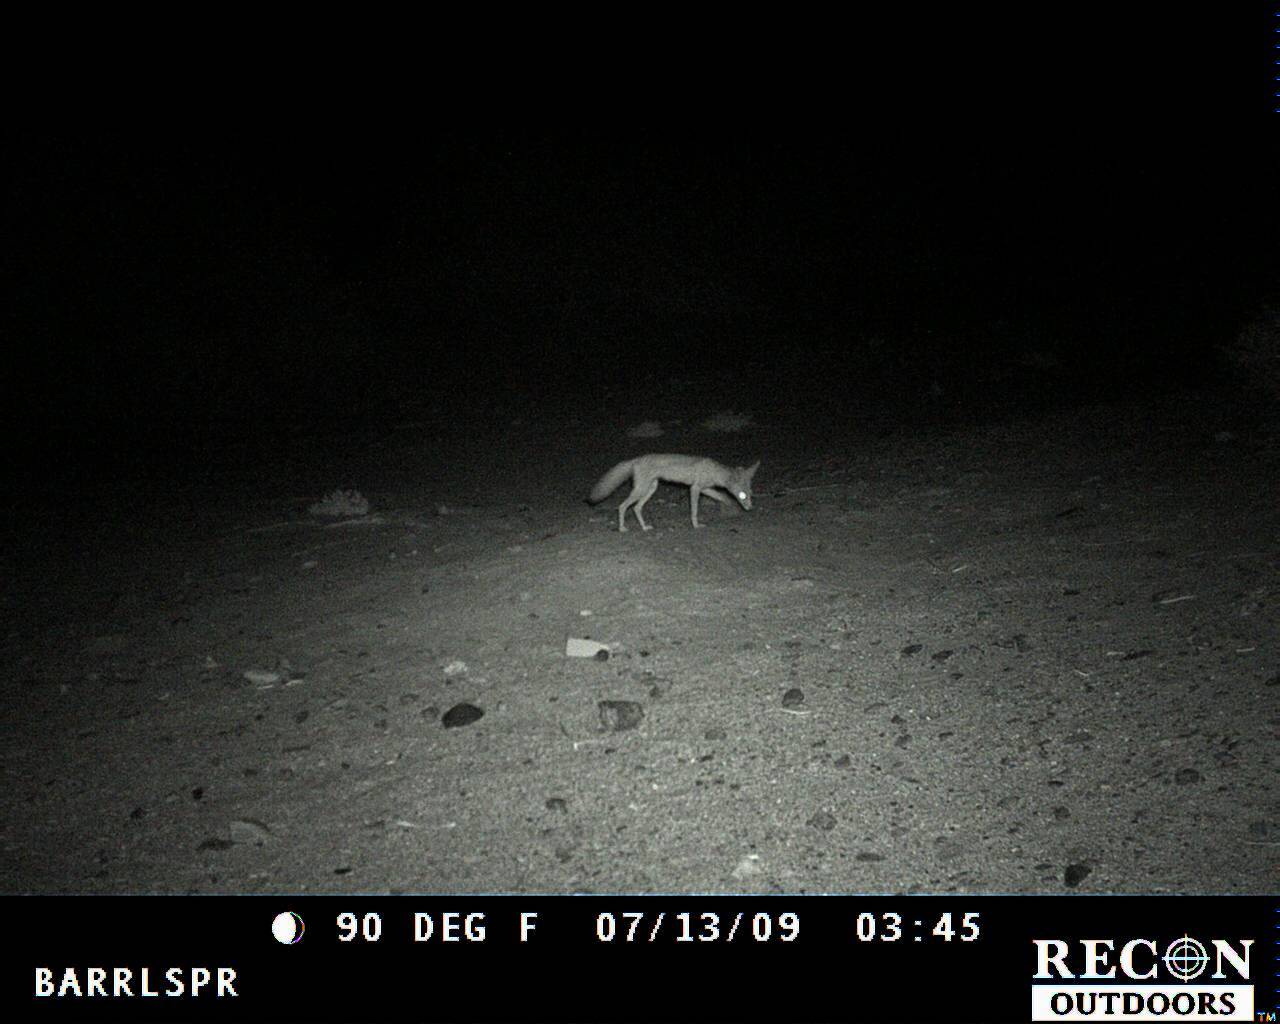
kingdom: Animalia
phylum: Chordata
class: Mammalia
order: Carnivora
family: Canidae
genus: Vulpes
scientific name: Vulpes macrotis
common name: Kit fox
